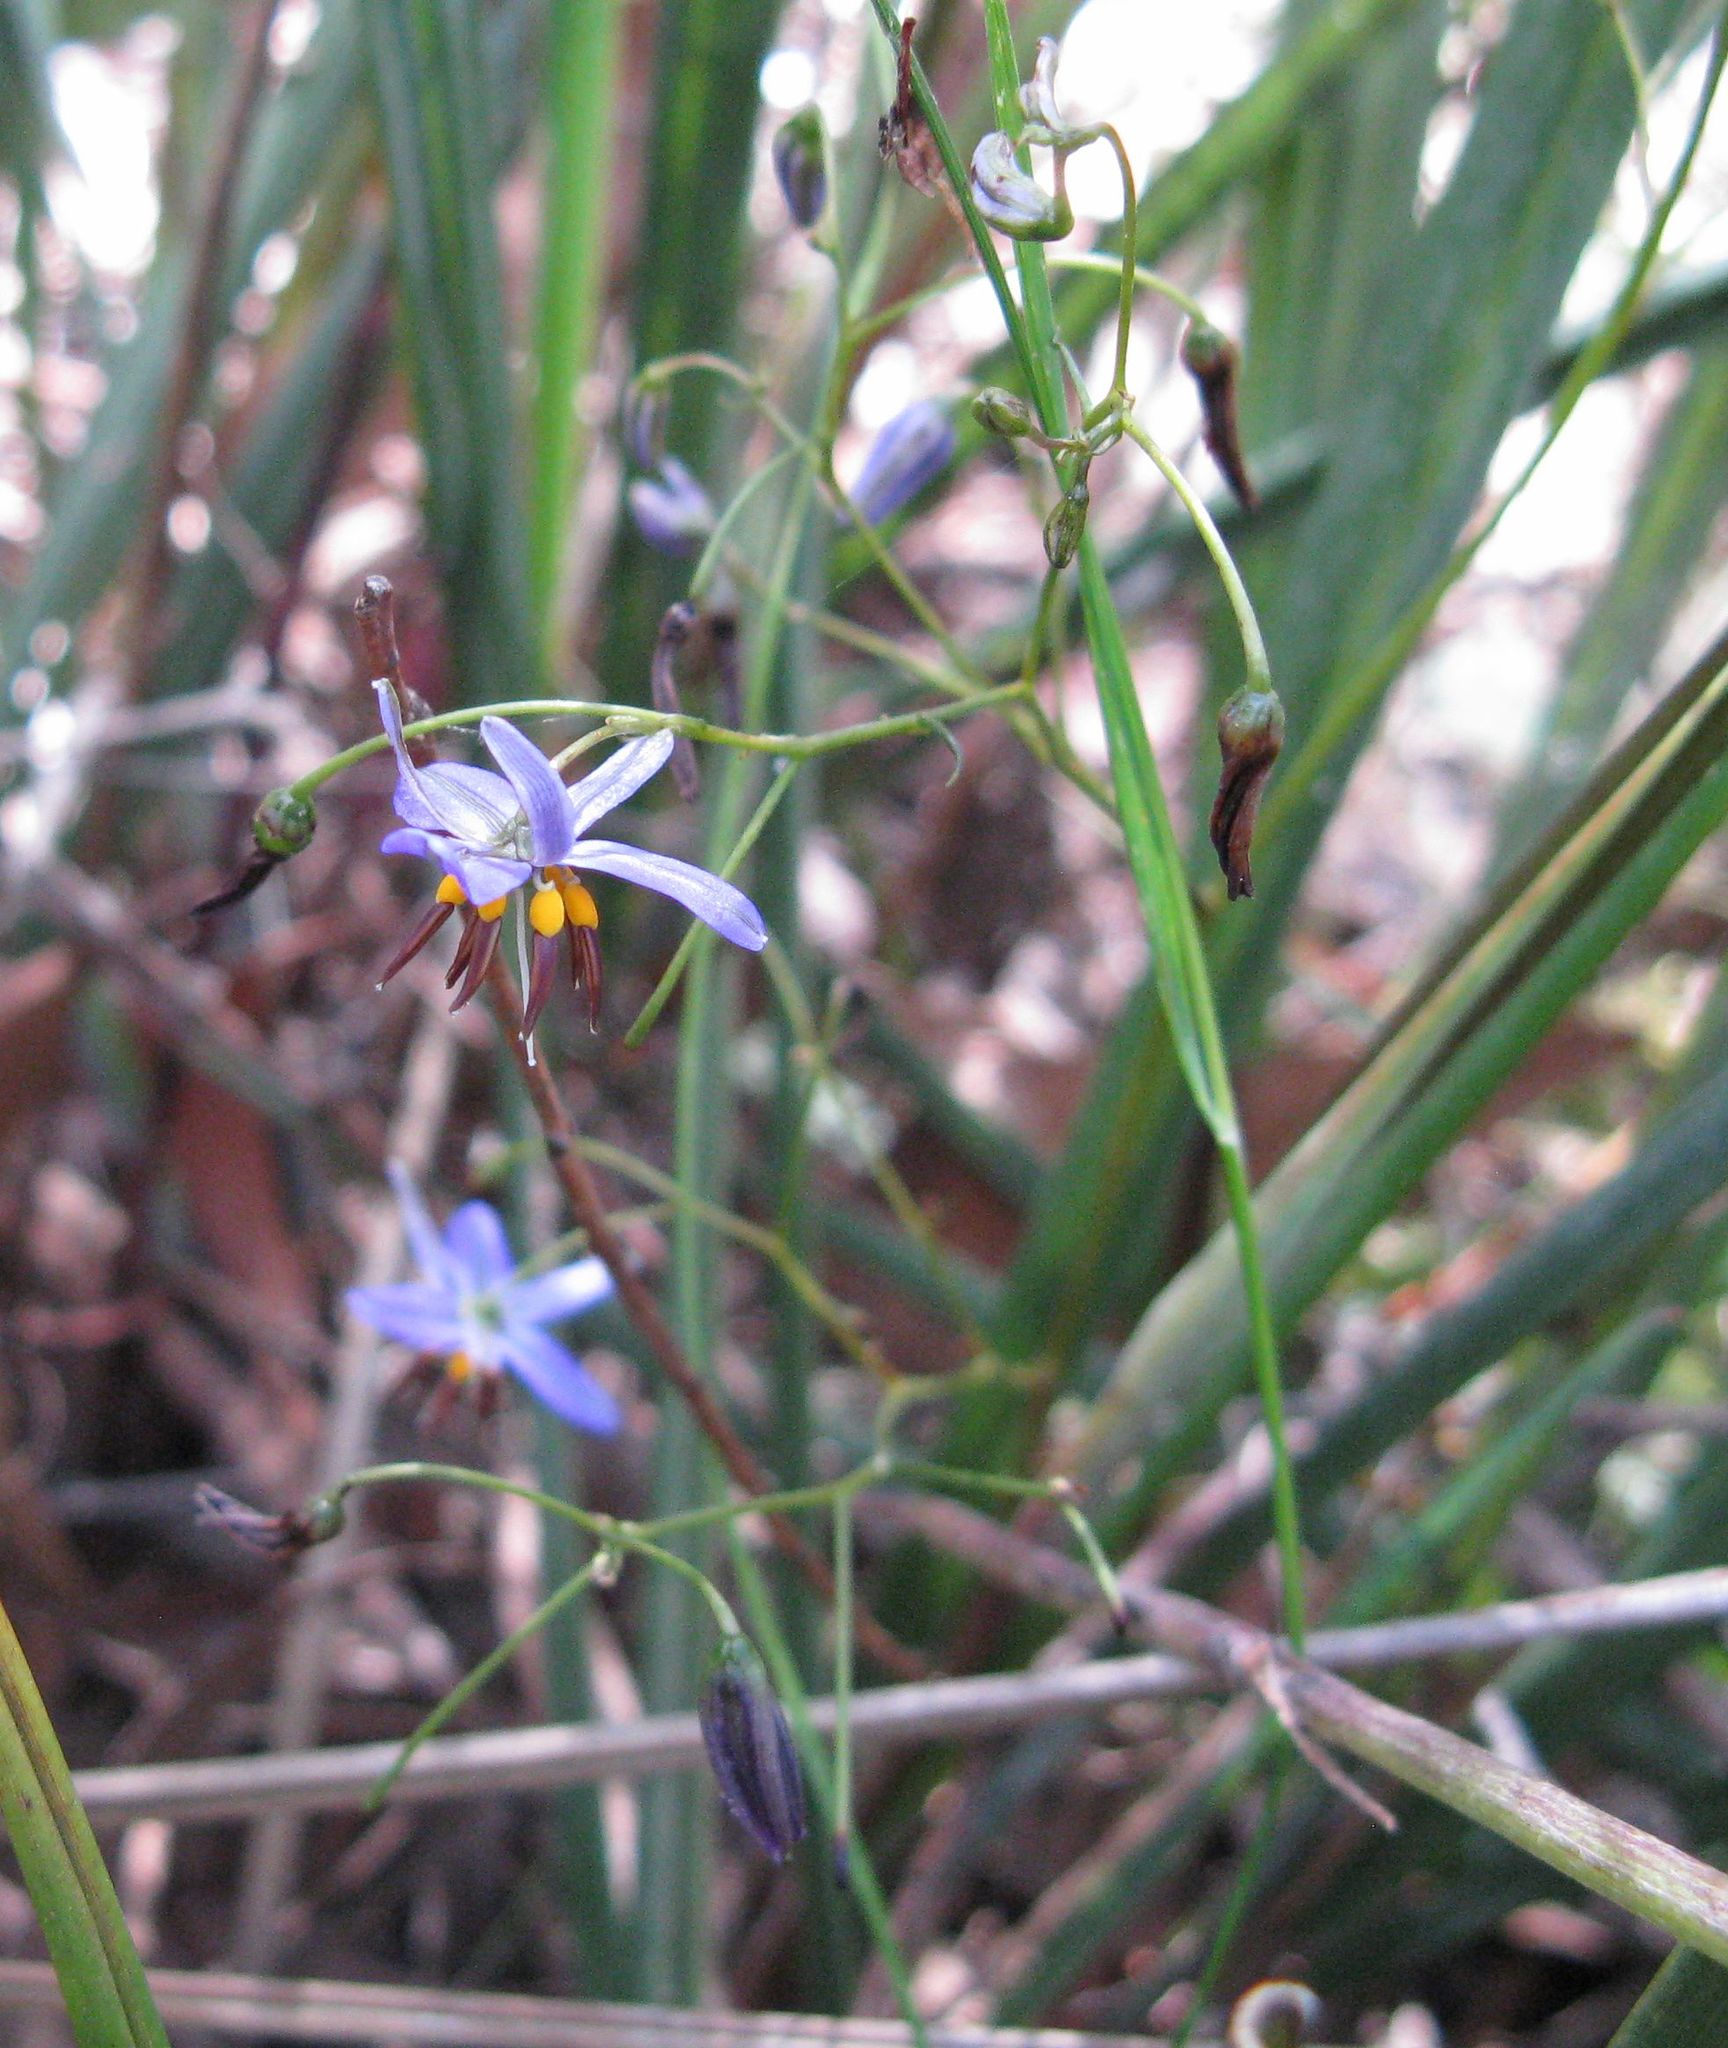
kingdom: Plantae
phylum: Tracheophyta
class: Liliopsida
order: Asparagales
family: Asphodelaceae
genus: Dianella
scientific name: Dianella revoluta
